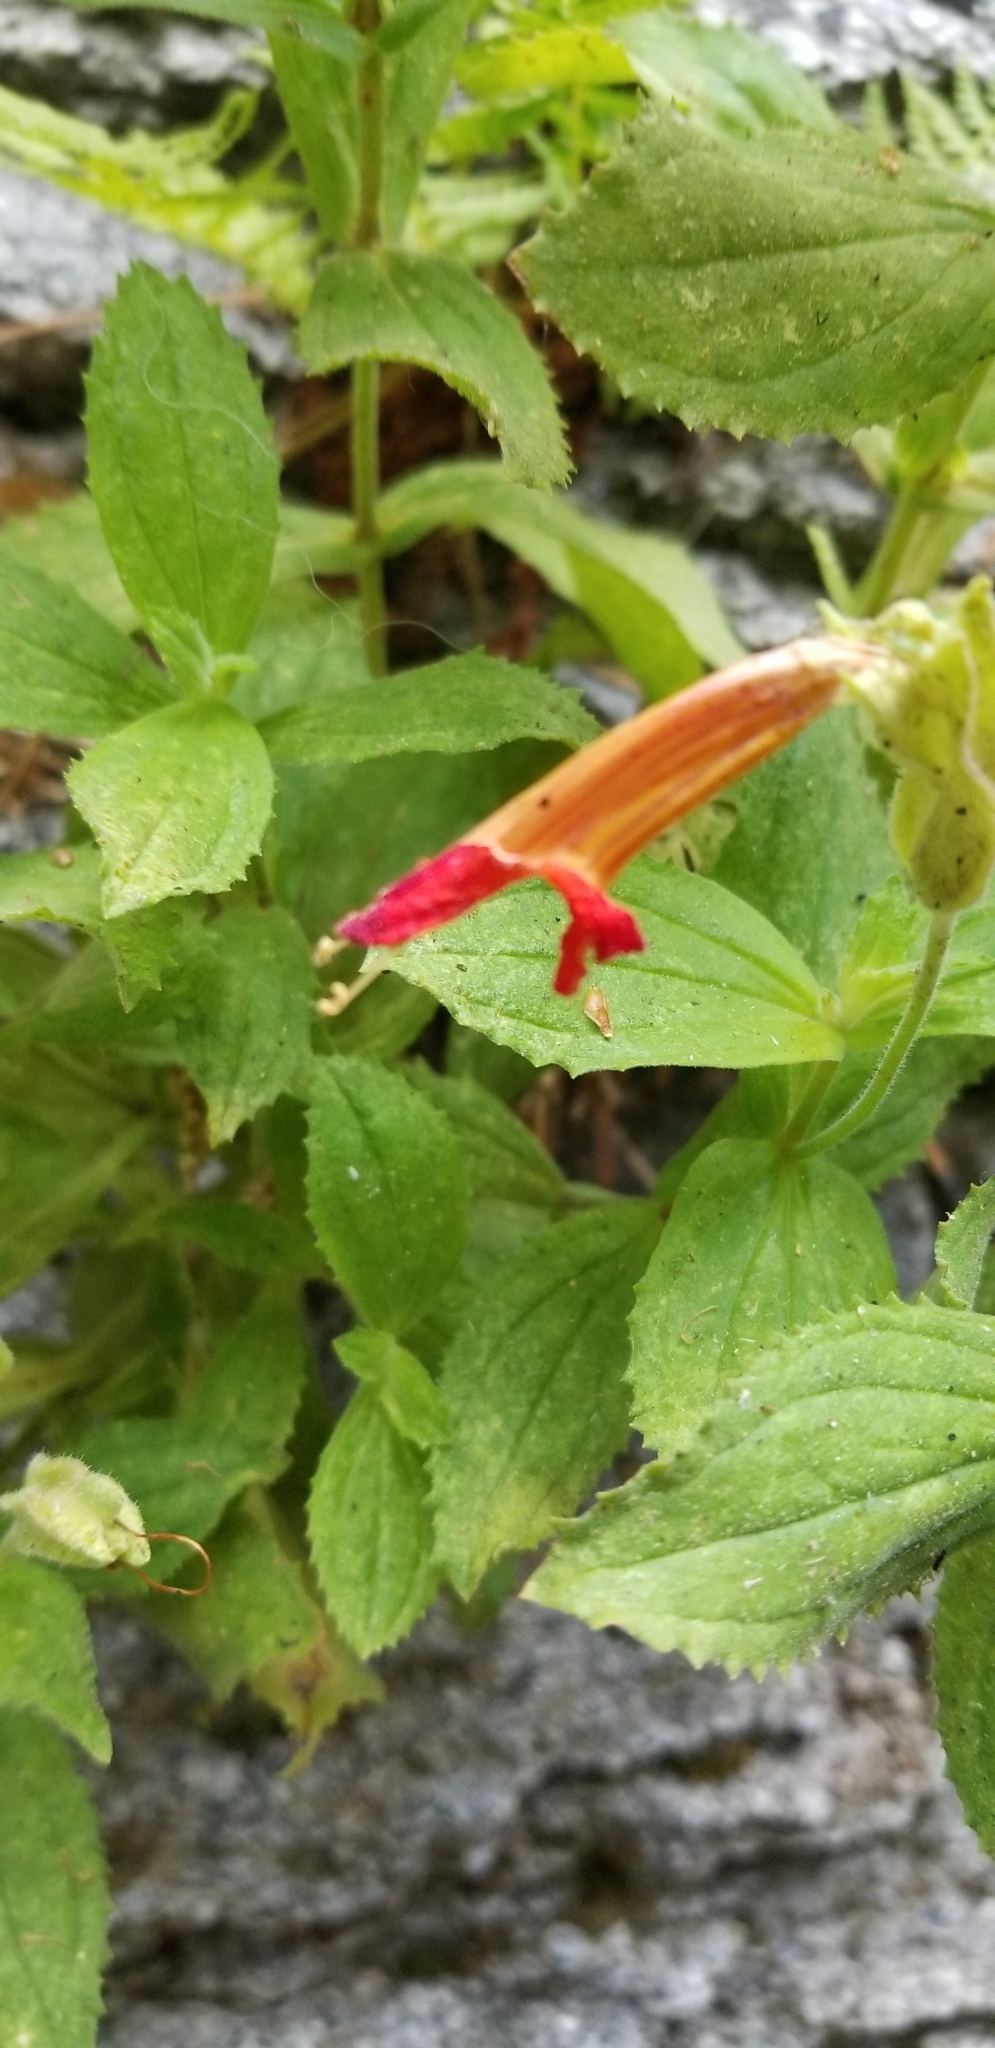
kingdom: Plantae
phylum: Tracheophyta
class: Magnoliopsida
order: Lamiales
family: Phrymaceae
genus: Erythranthe
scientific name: Erythranthe cardinalis
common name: Scarlet monkey-flower
